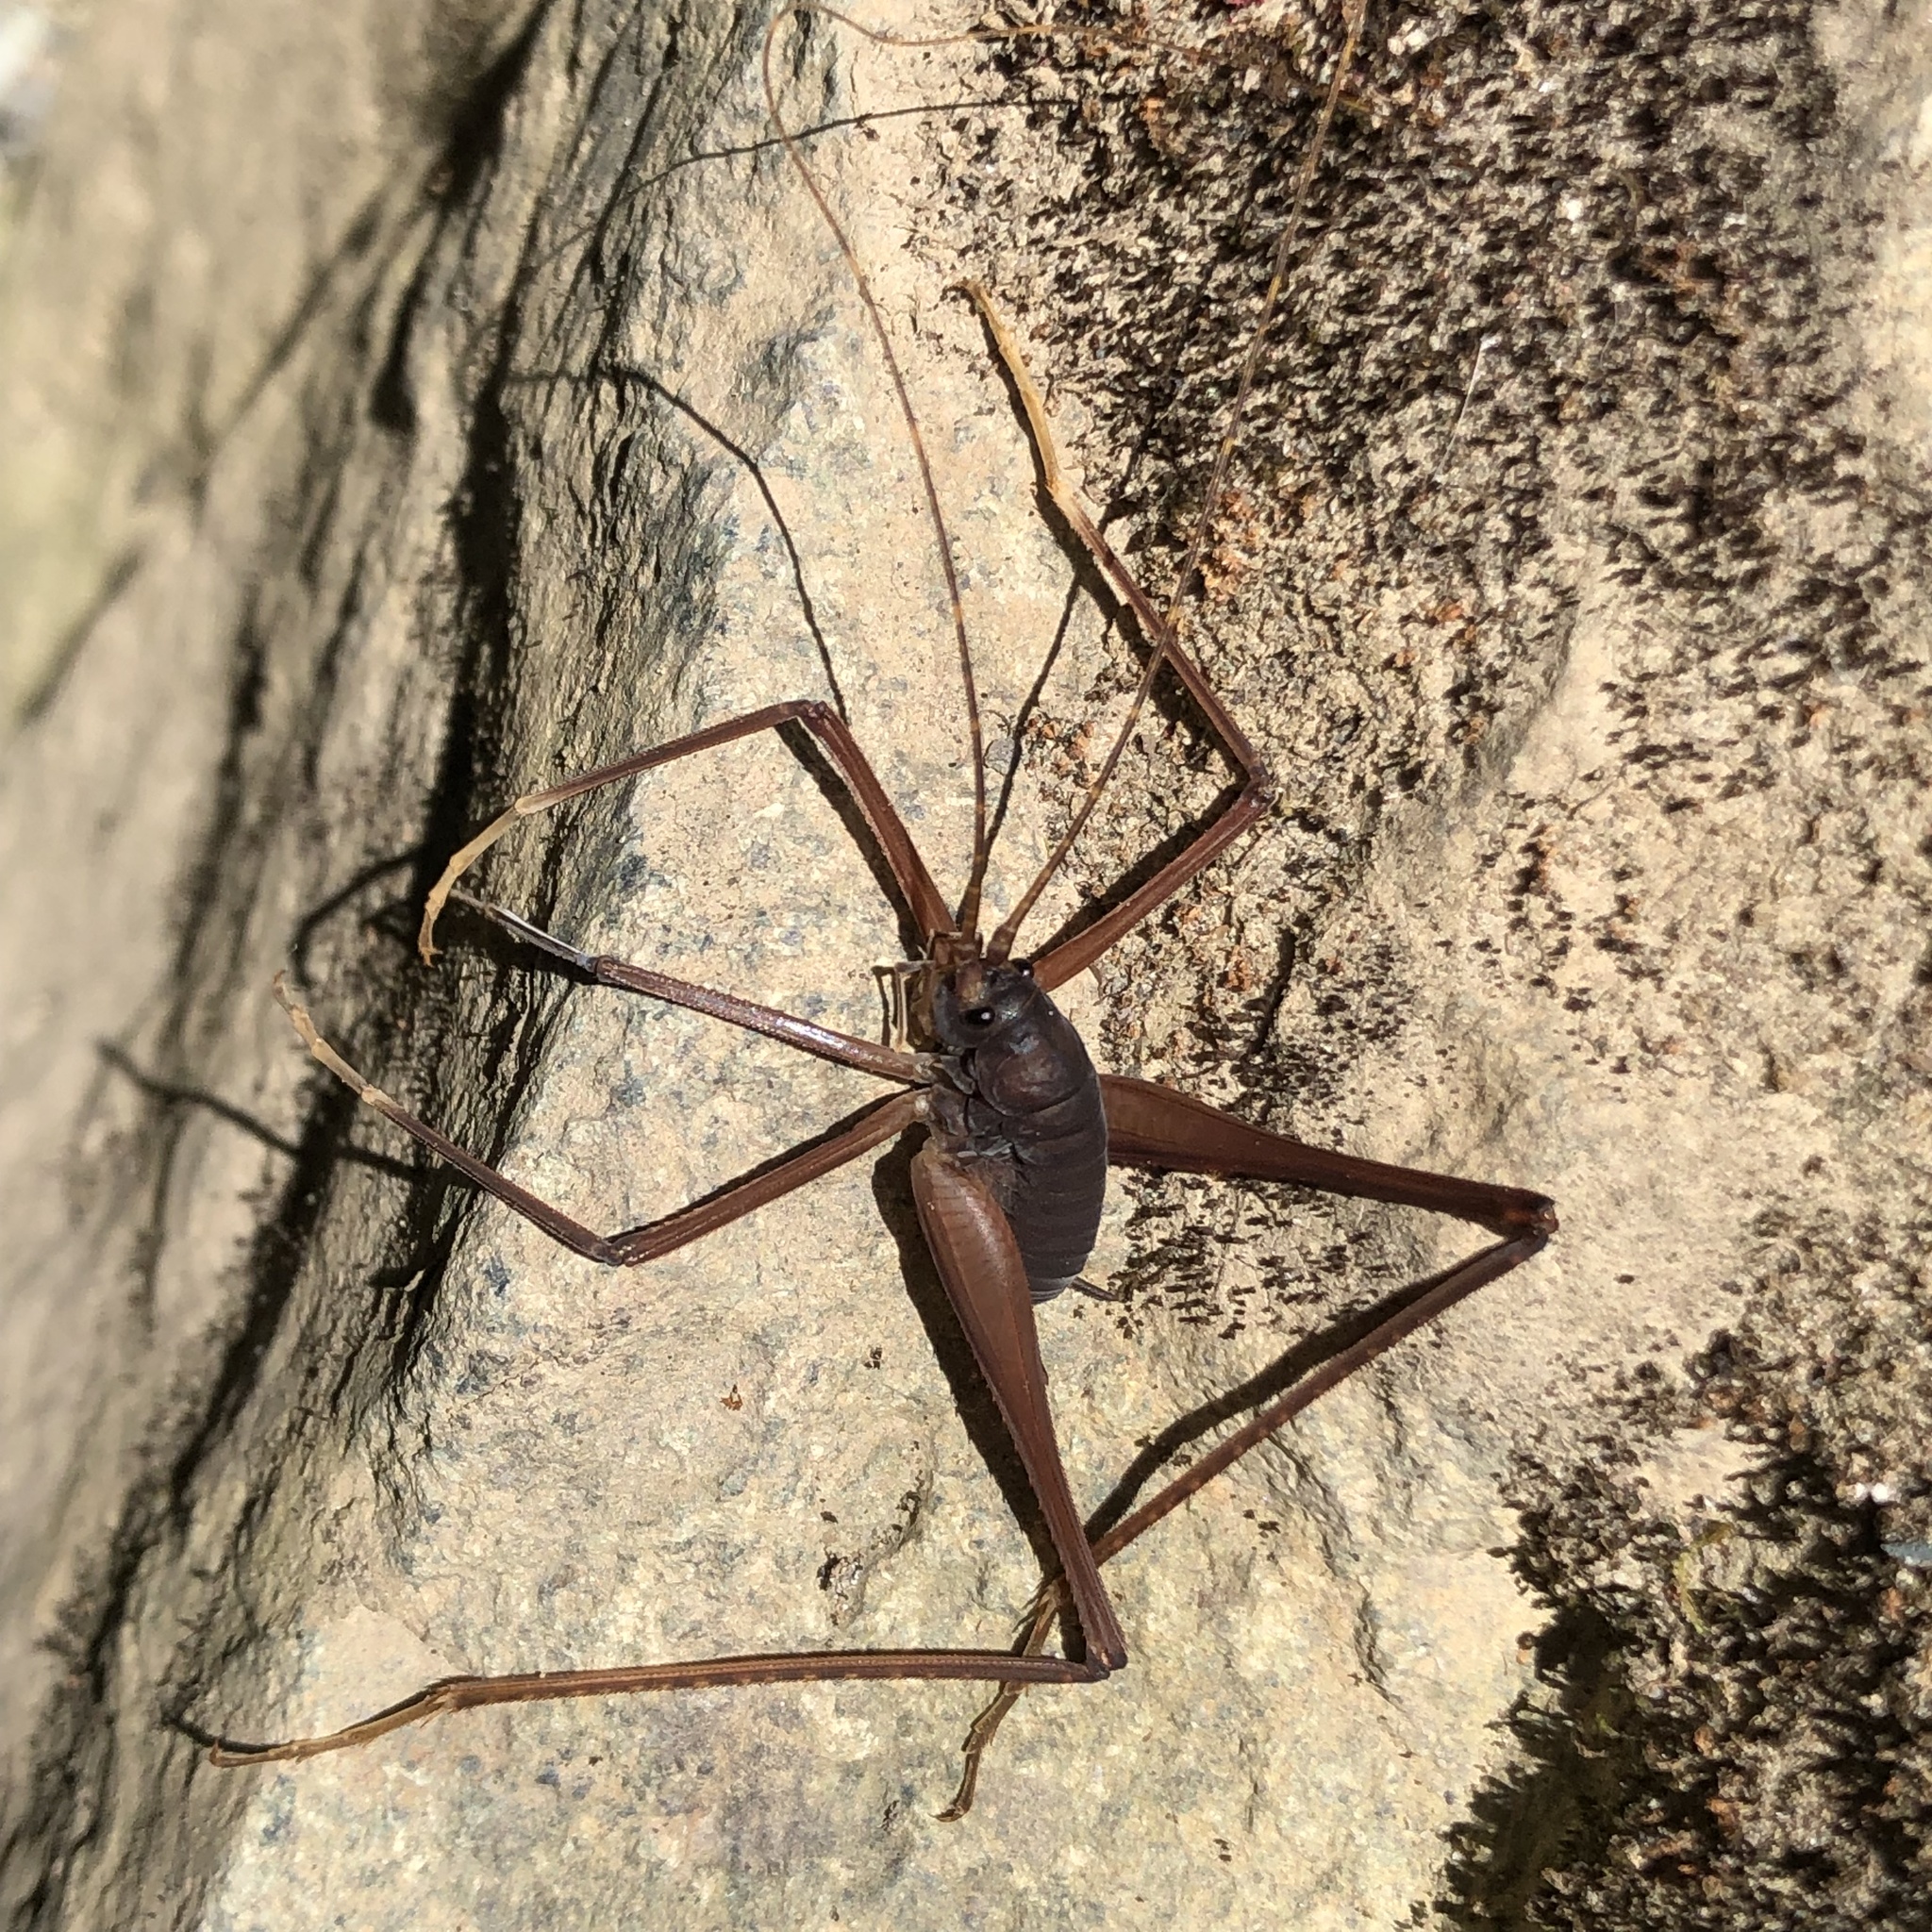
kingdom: Animalia
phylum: Arthropoda
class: Insecta
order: Orthoptera
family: Rhaphidophoridae
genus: Tropidischia
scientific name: Tropidischia xanthostoma
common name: Square-legged camel cricket
